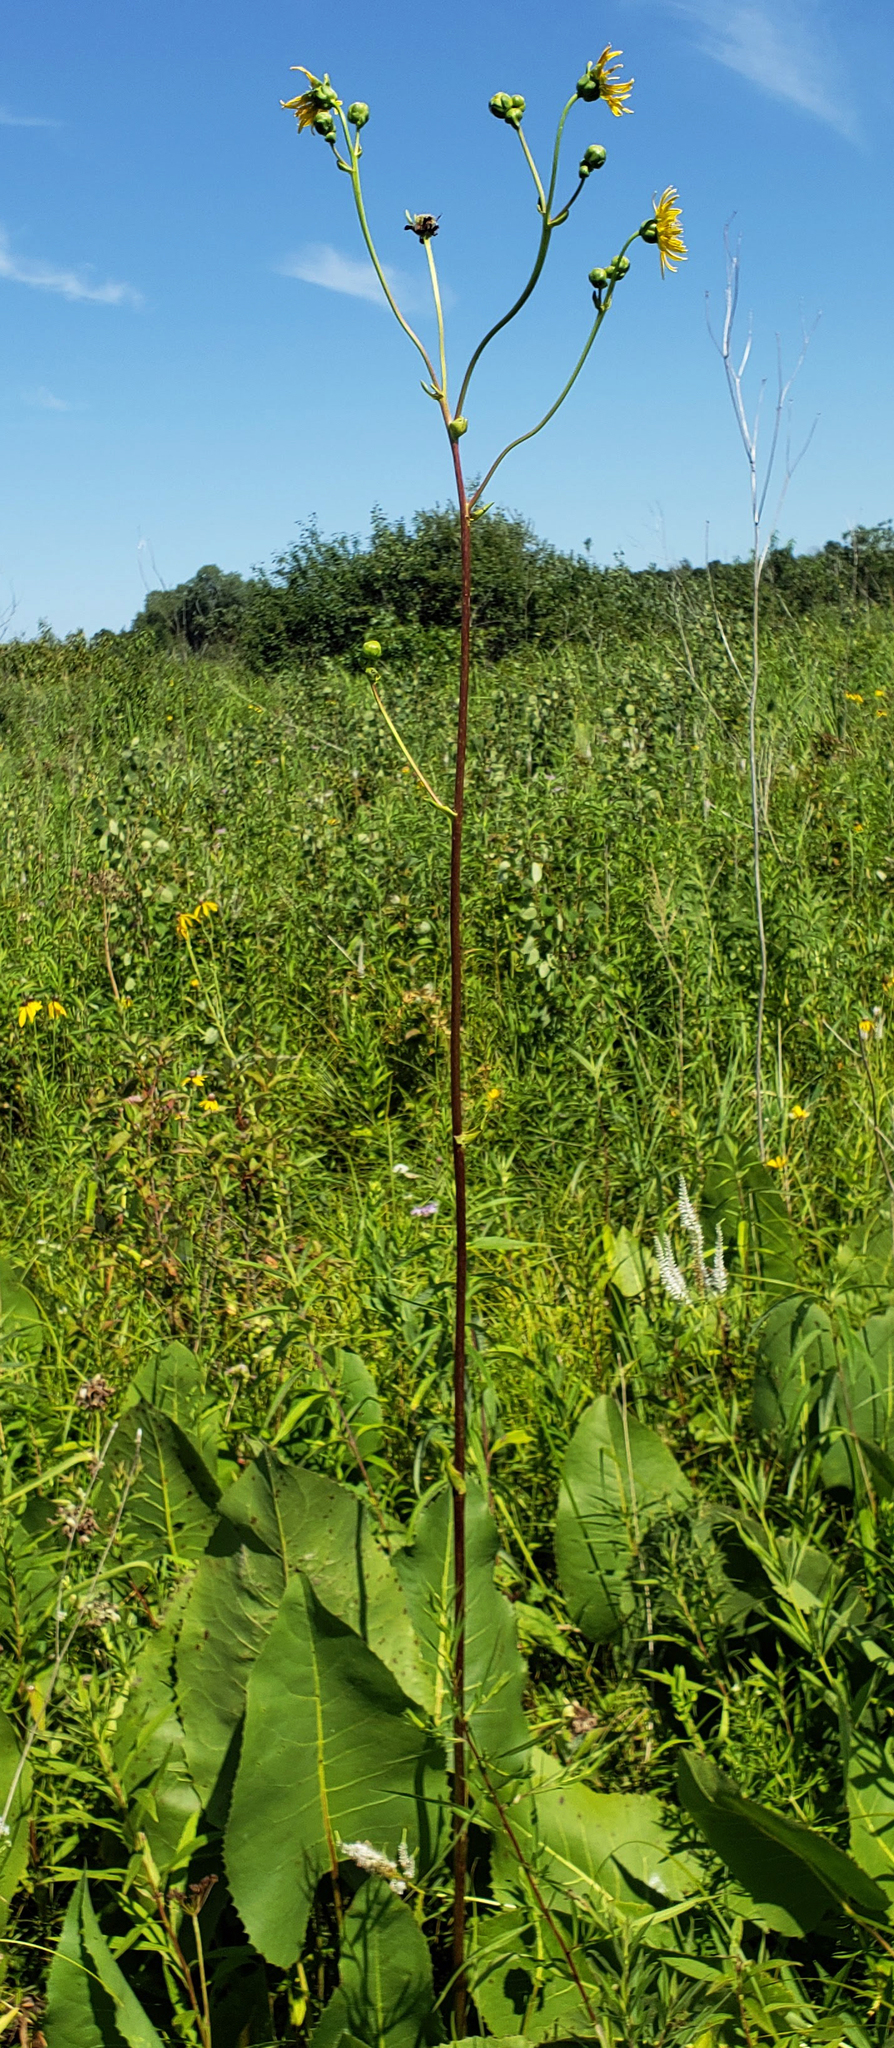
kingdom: Plantae
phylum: Tracheophyta
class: Magnoliopsida
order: Asterales
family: Asteraceae
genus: Silphium
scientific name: Silphium terebinthinaceum
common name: Basal-leaf rosinweed
